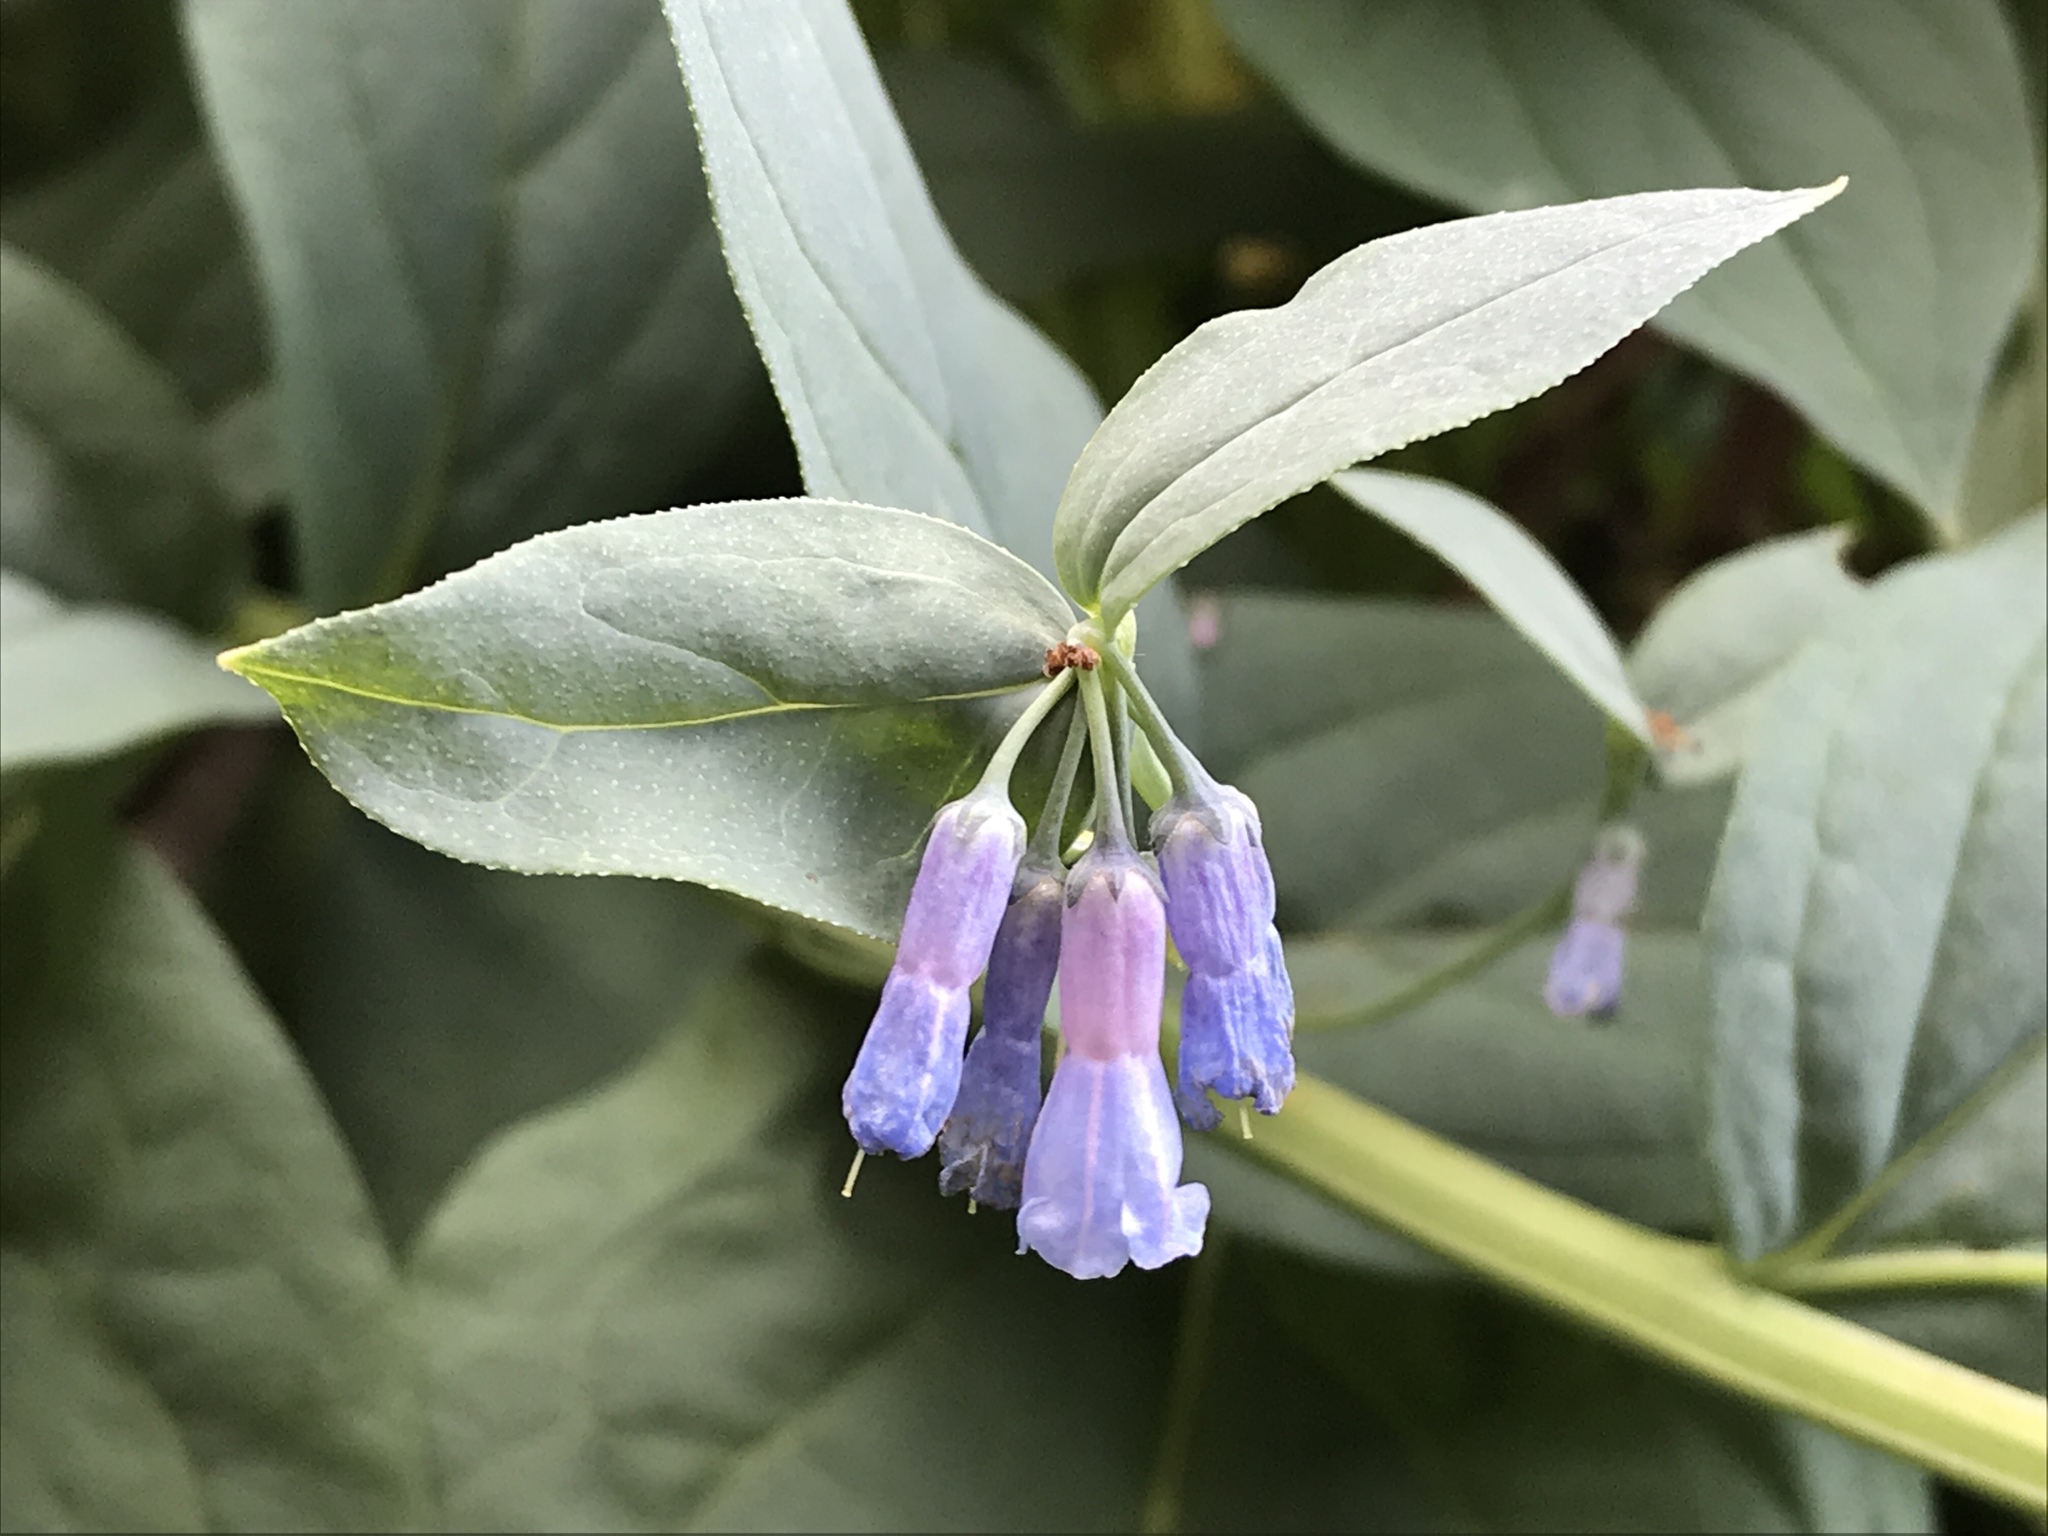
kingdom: Plantae
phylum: Tracheophyta
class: Magnoliopsida
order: Boraginales
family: Boraginaceae
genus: Mertensia
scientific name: Mertensia ciliata
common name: Tall chiming-bells
